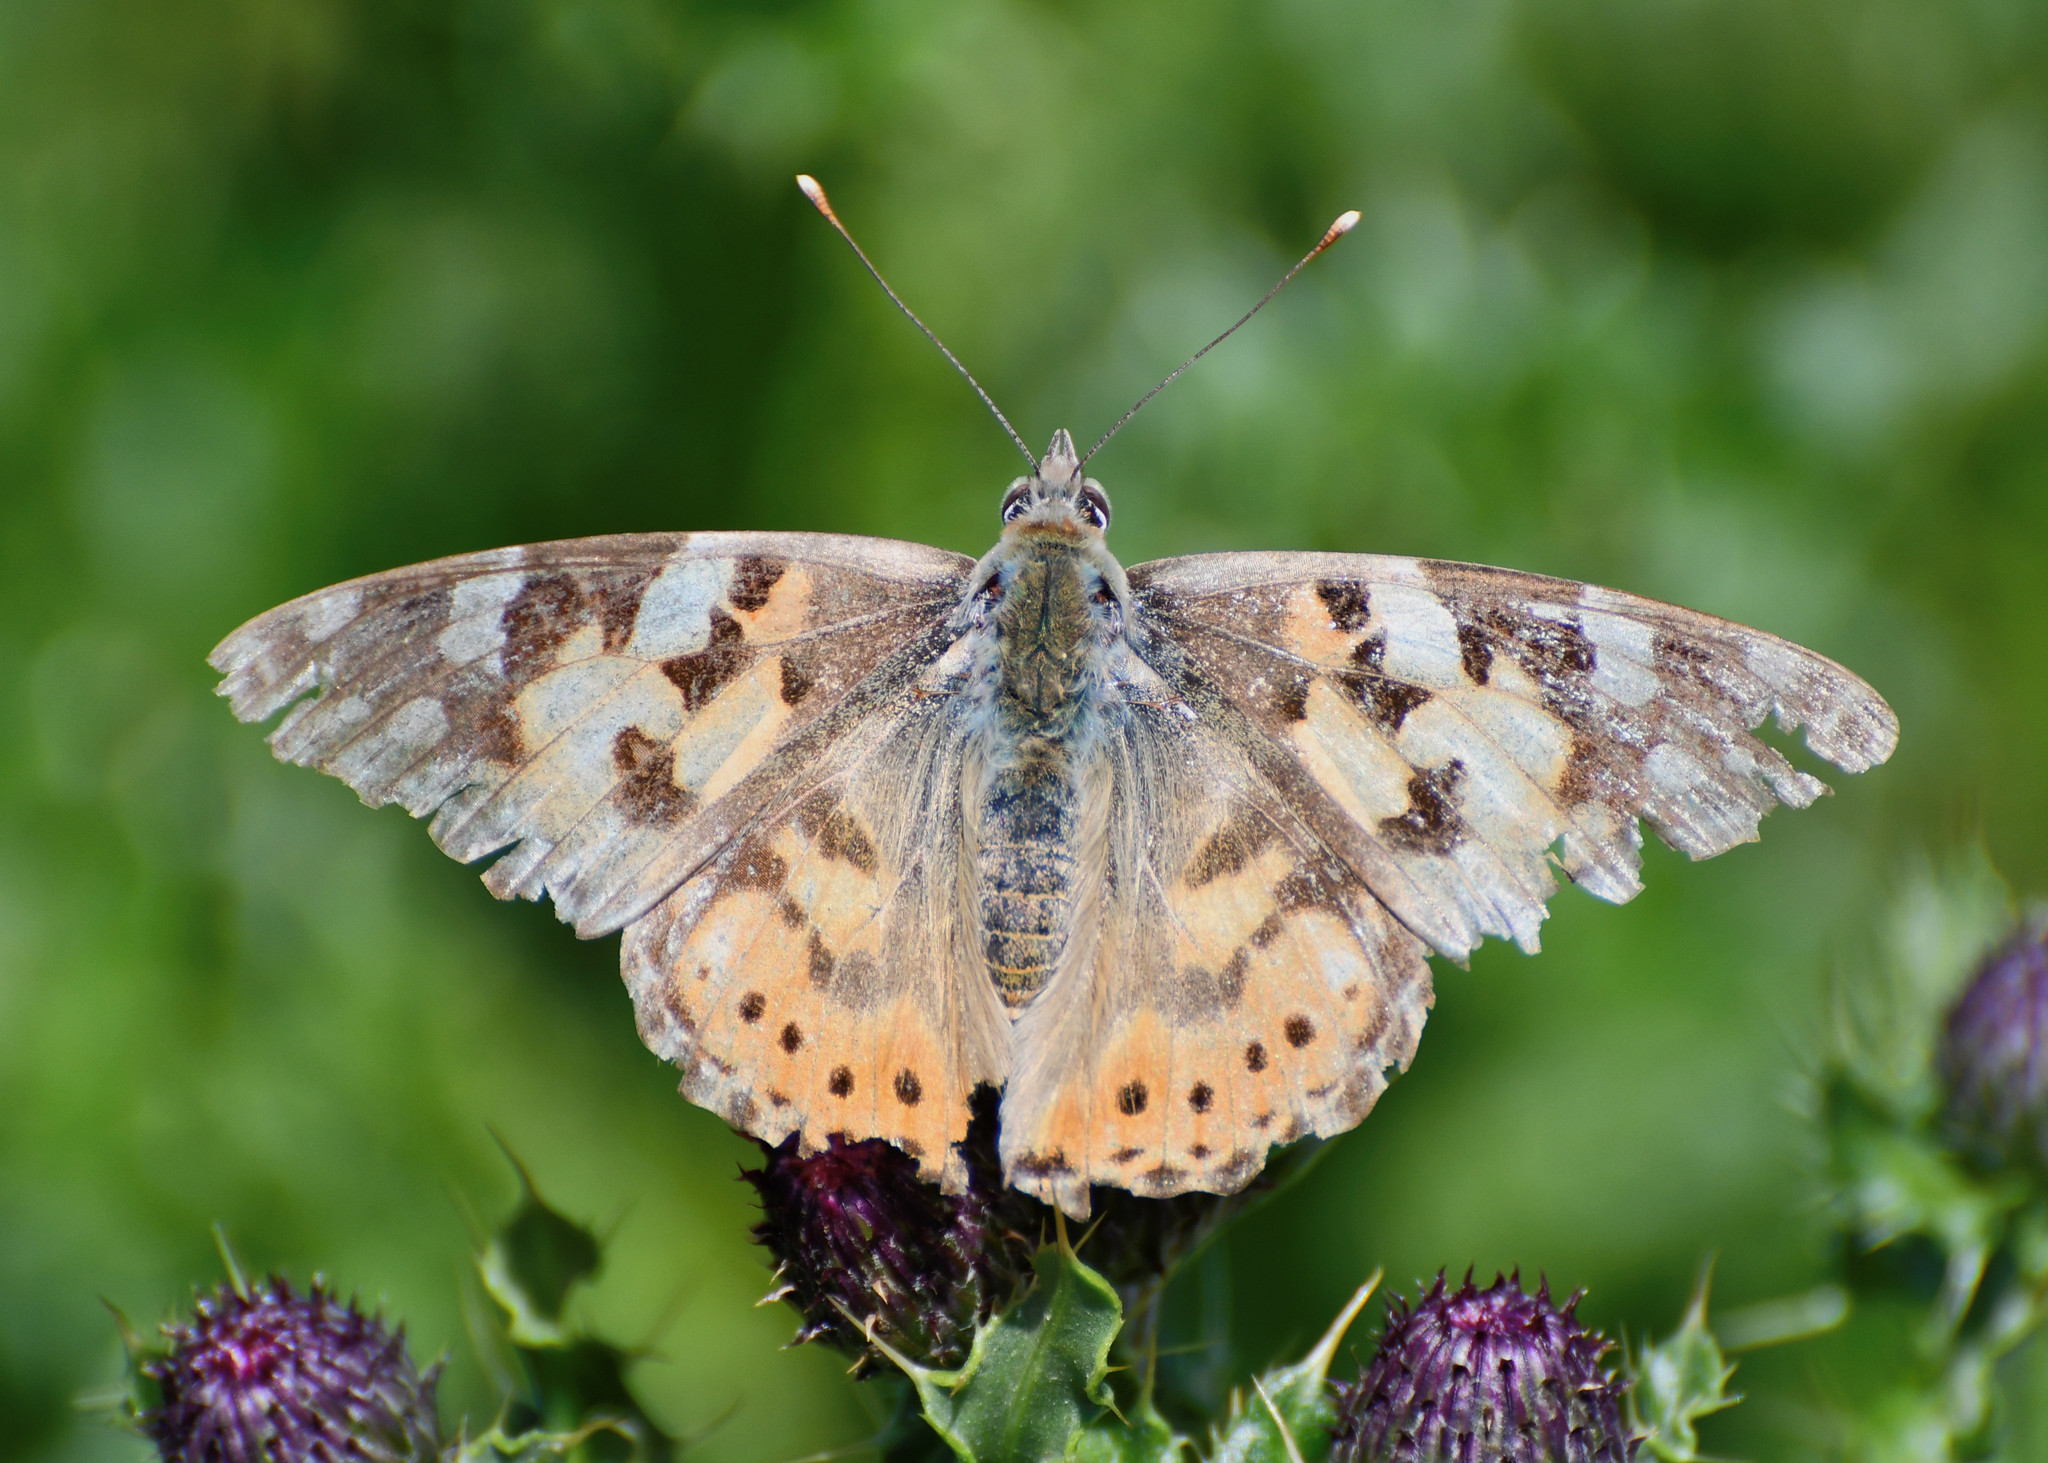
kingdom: Animalia
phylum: Arthropoda
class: Insecta
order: Lepidoptera
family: Nymphalidae
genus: Vanessa
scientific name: Vanessa cardui
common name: Painted lady
